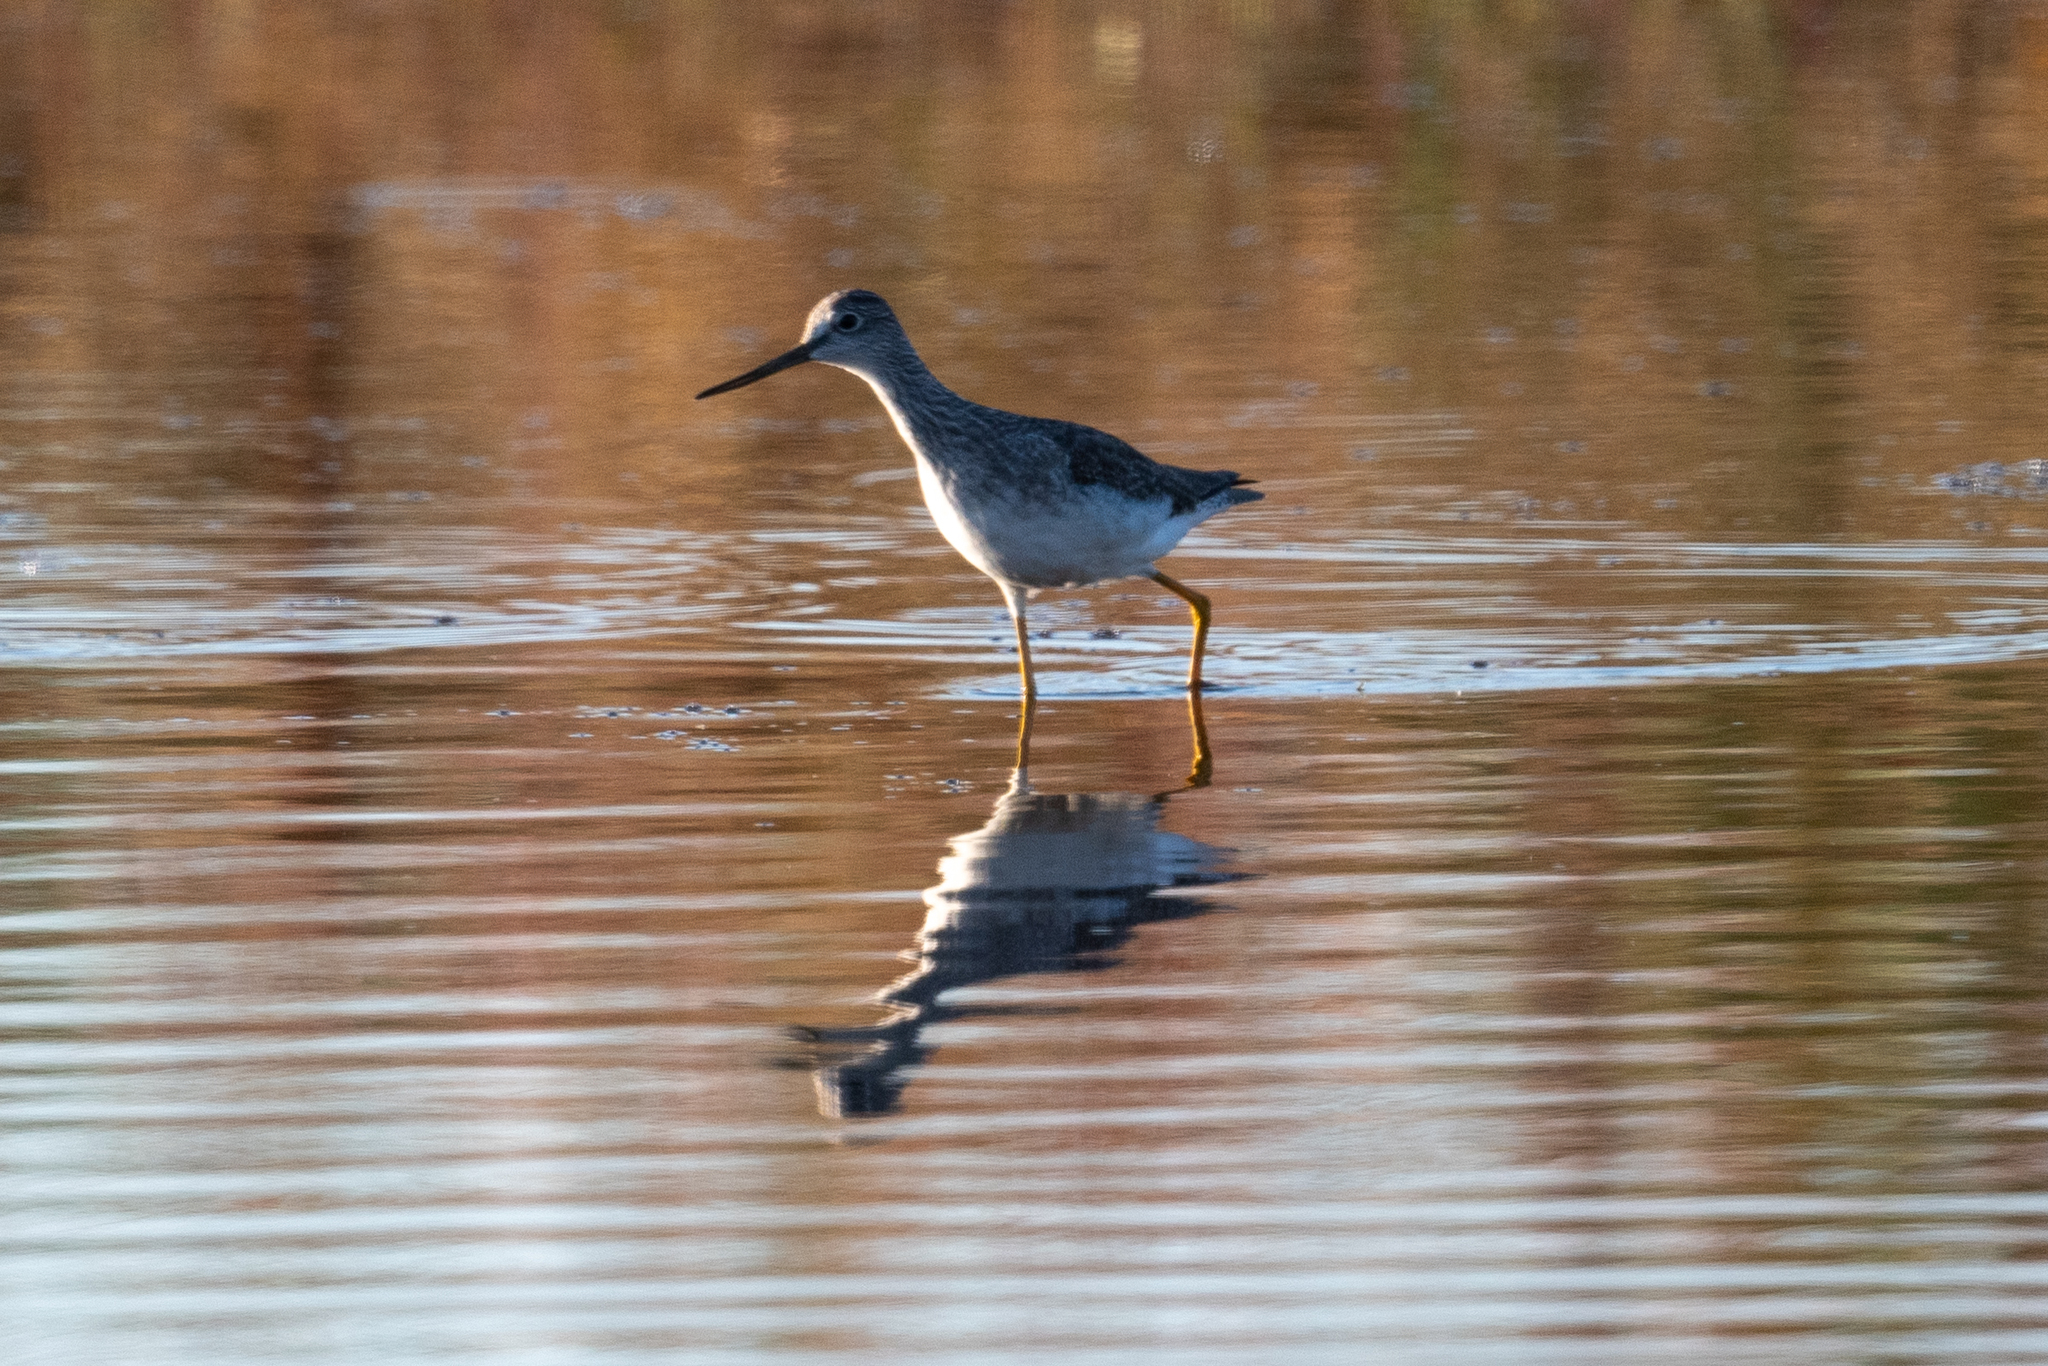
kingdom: Animalia
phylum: Chordata
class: Aves
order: Charadriiformes
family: Scolopacidae
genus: Tringa
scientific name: Tringa melanoleuca
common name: Greater yellowlegs
